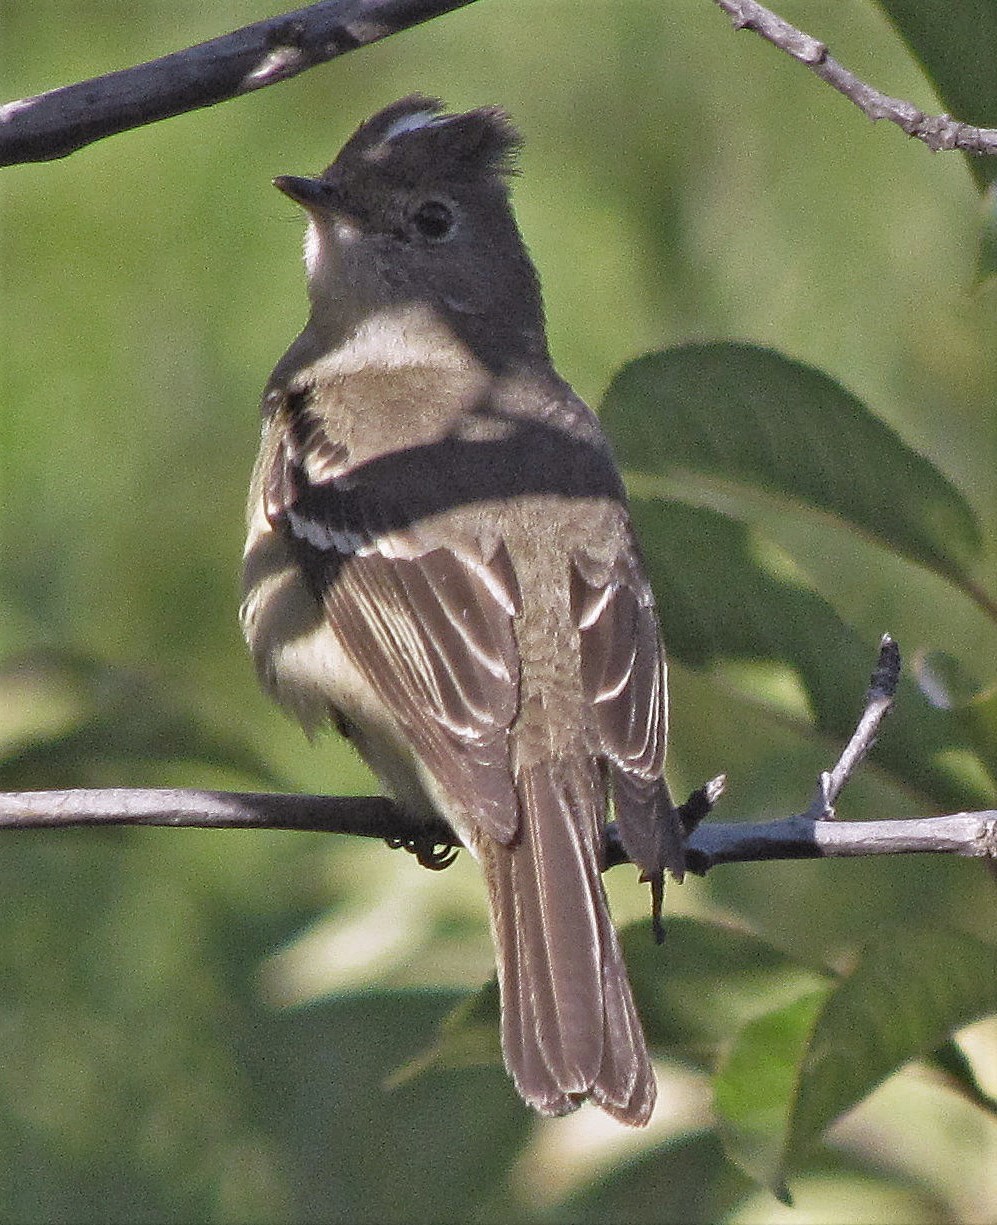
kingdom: Animalia
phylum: Chordata
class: Aves
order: Passeriformes
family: Tyrannidae
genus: Elaenia
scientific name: Elaenia albiceps
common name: White-crested elaenia
